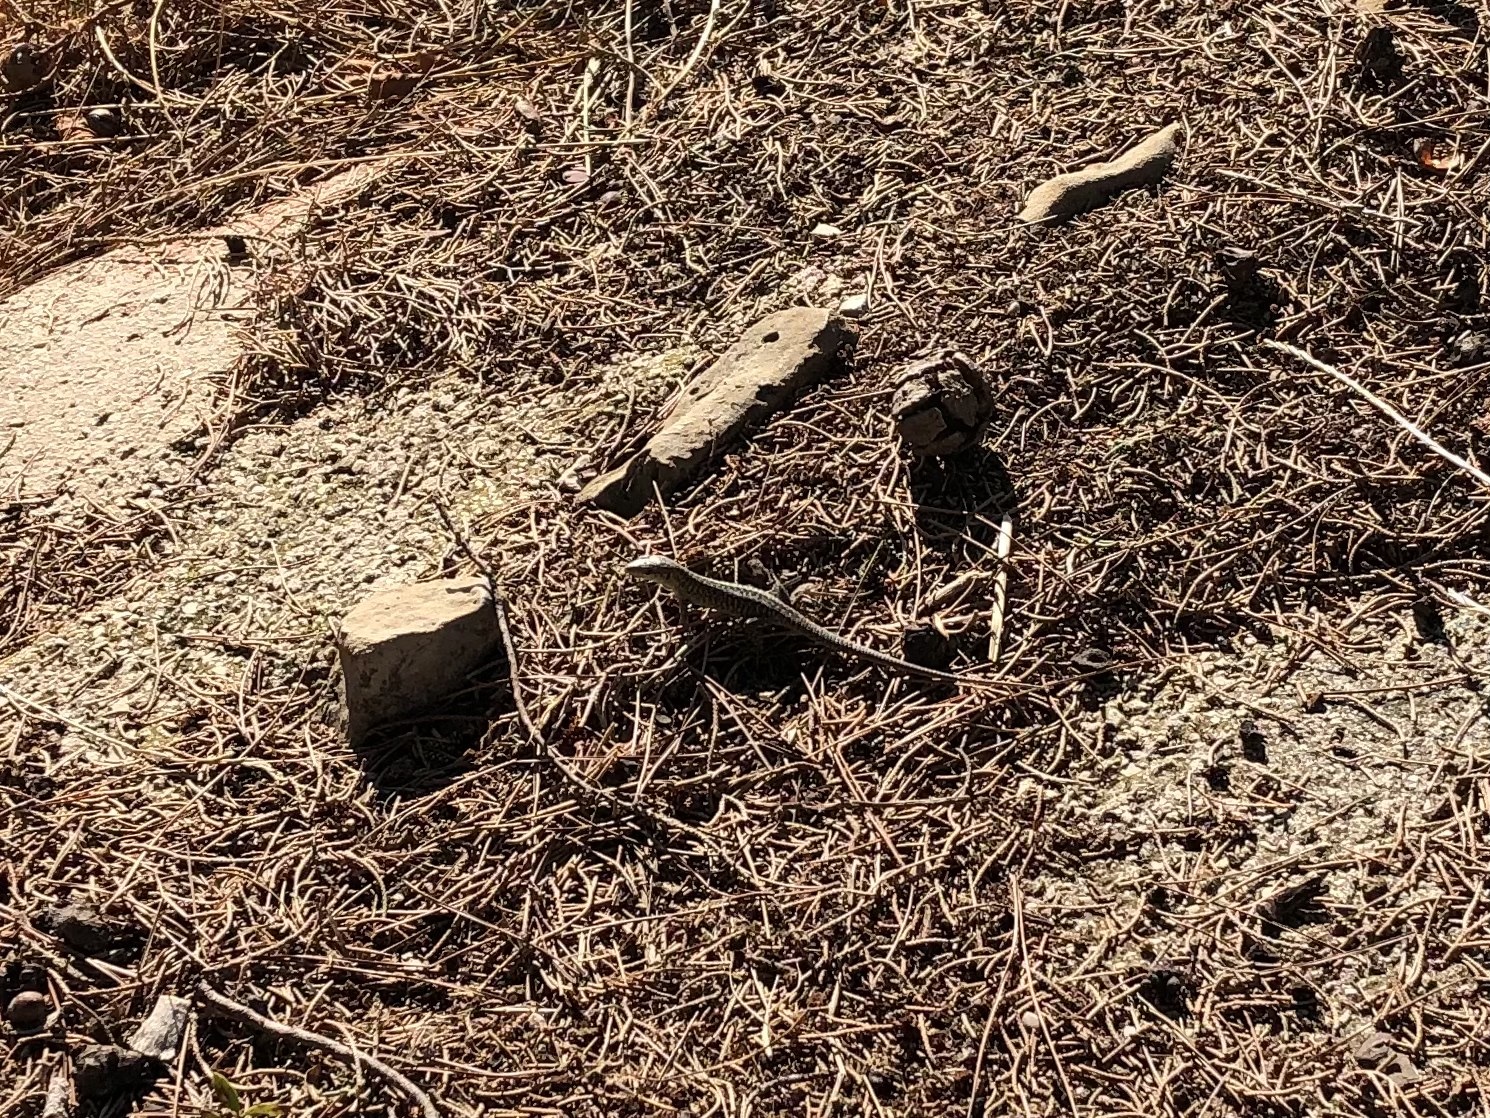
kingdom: Animalia
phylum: Chordata
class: Squamata
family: Lacertidae
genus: Podarcis
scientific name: Podarcis siculus
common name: Italian wall lizard
